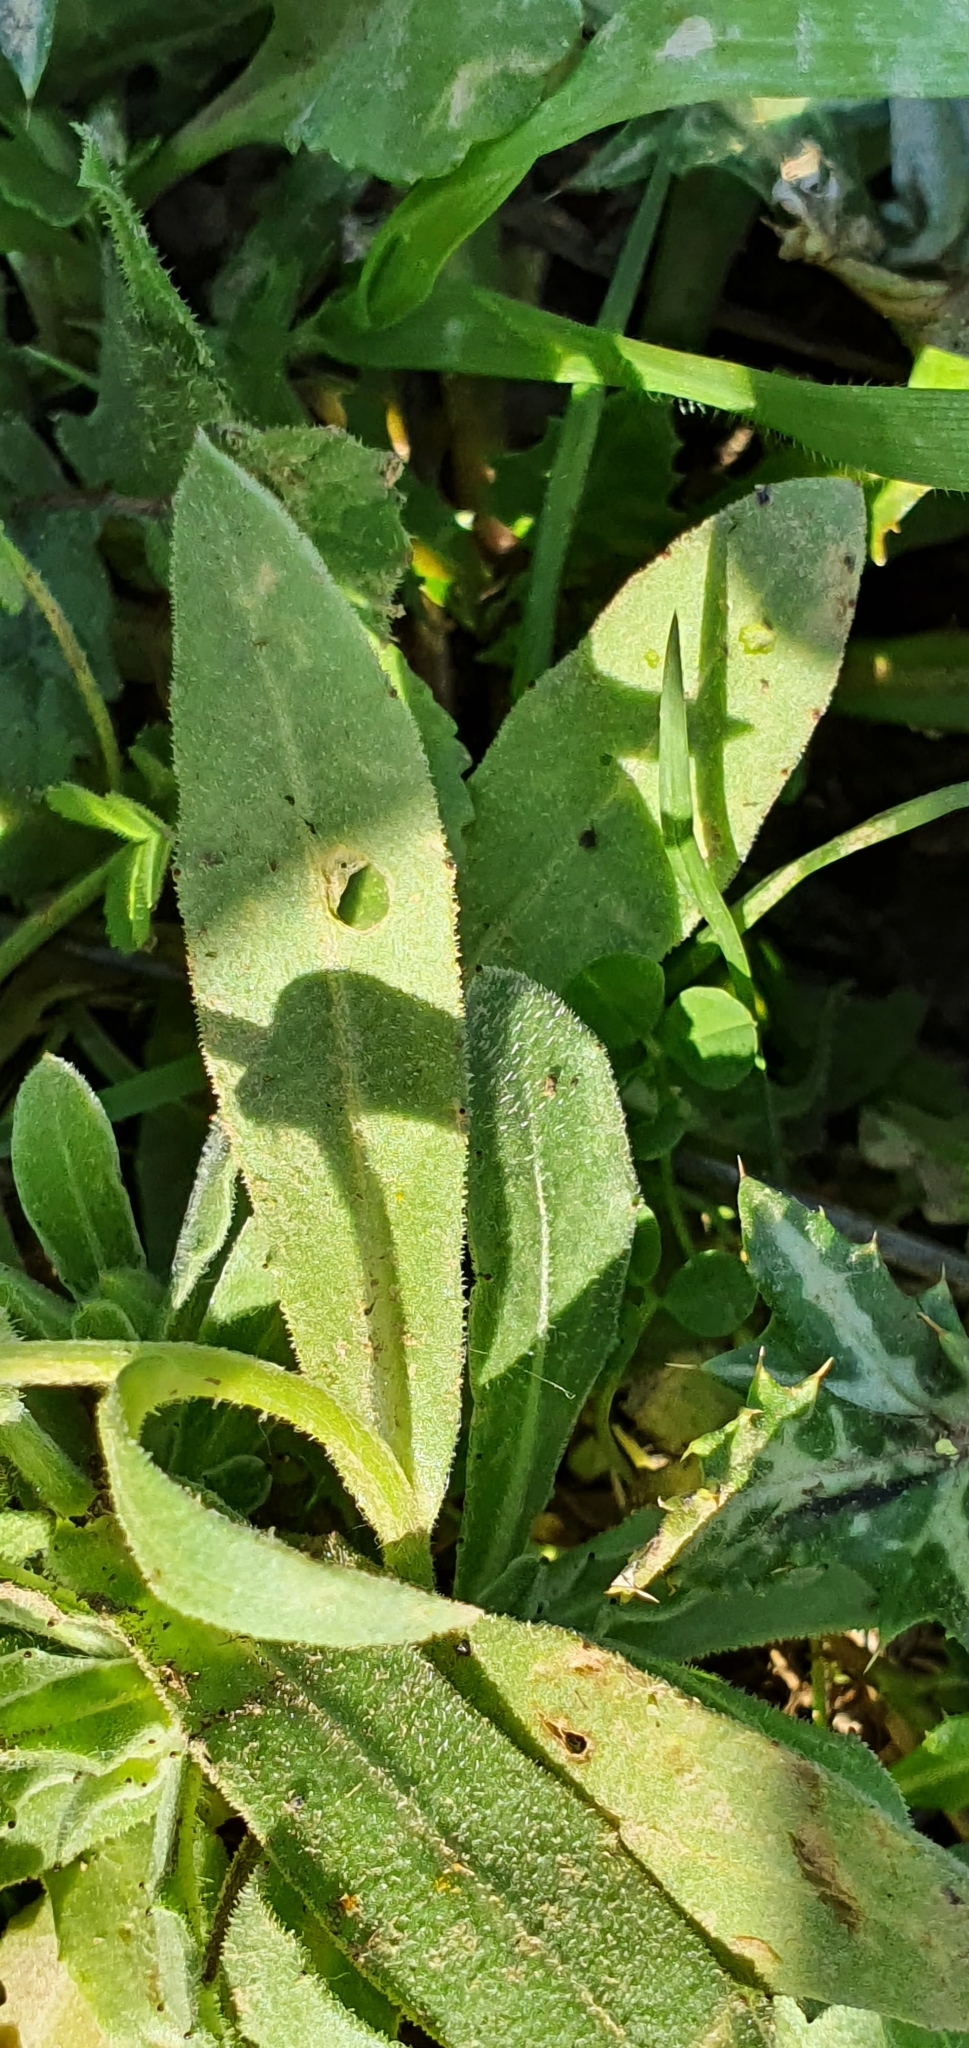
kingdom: Plantae
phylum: Tracheophyta
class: Magnoliopsida
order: Asterales
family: Asteraceae
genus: Calendula
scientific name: Calendula arvensis
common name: Field marigold
